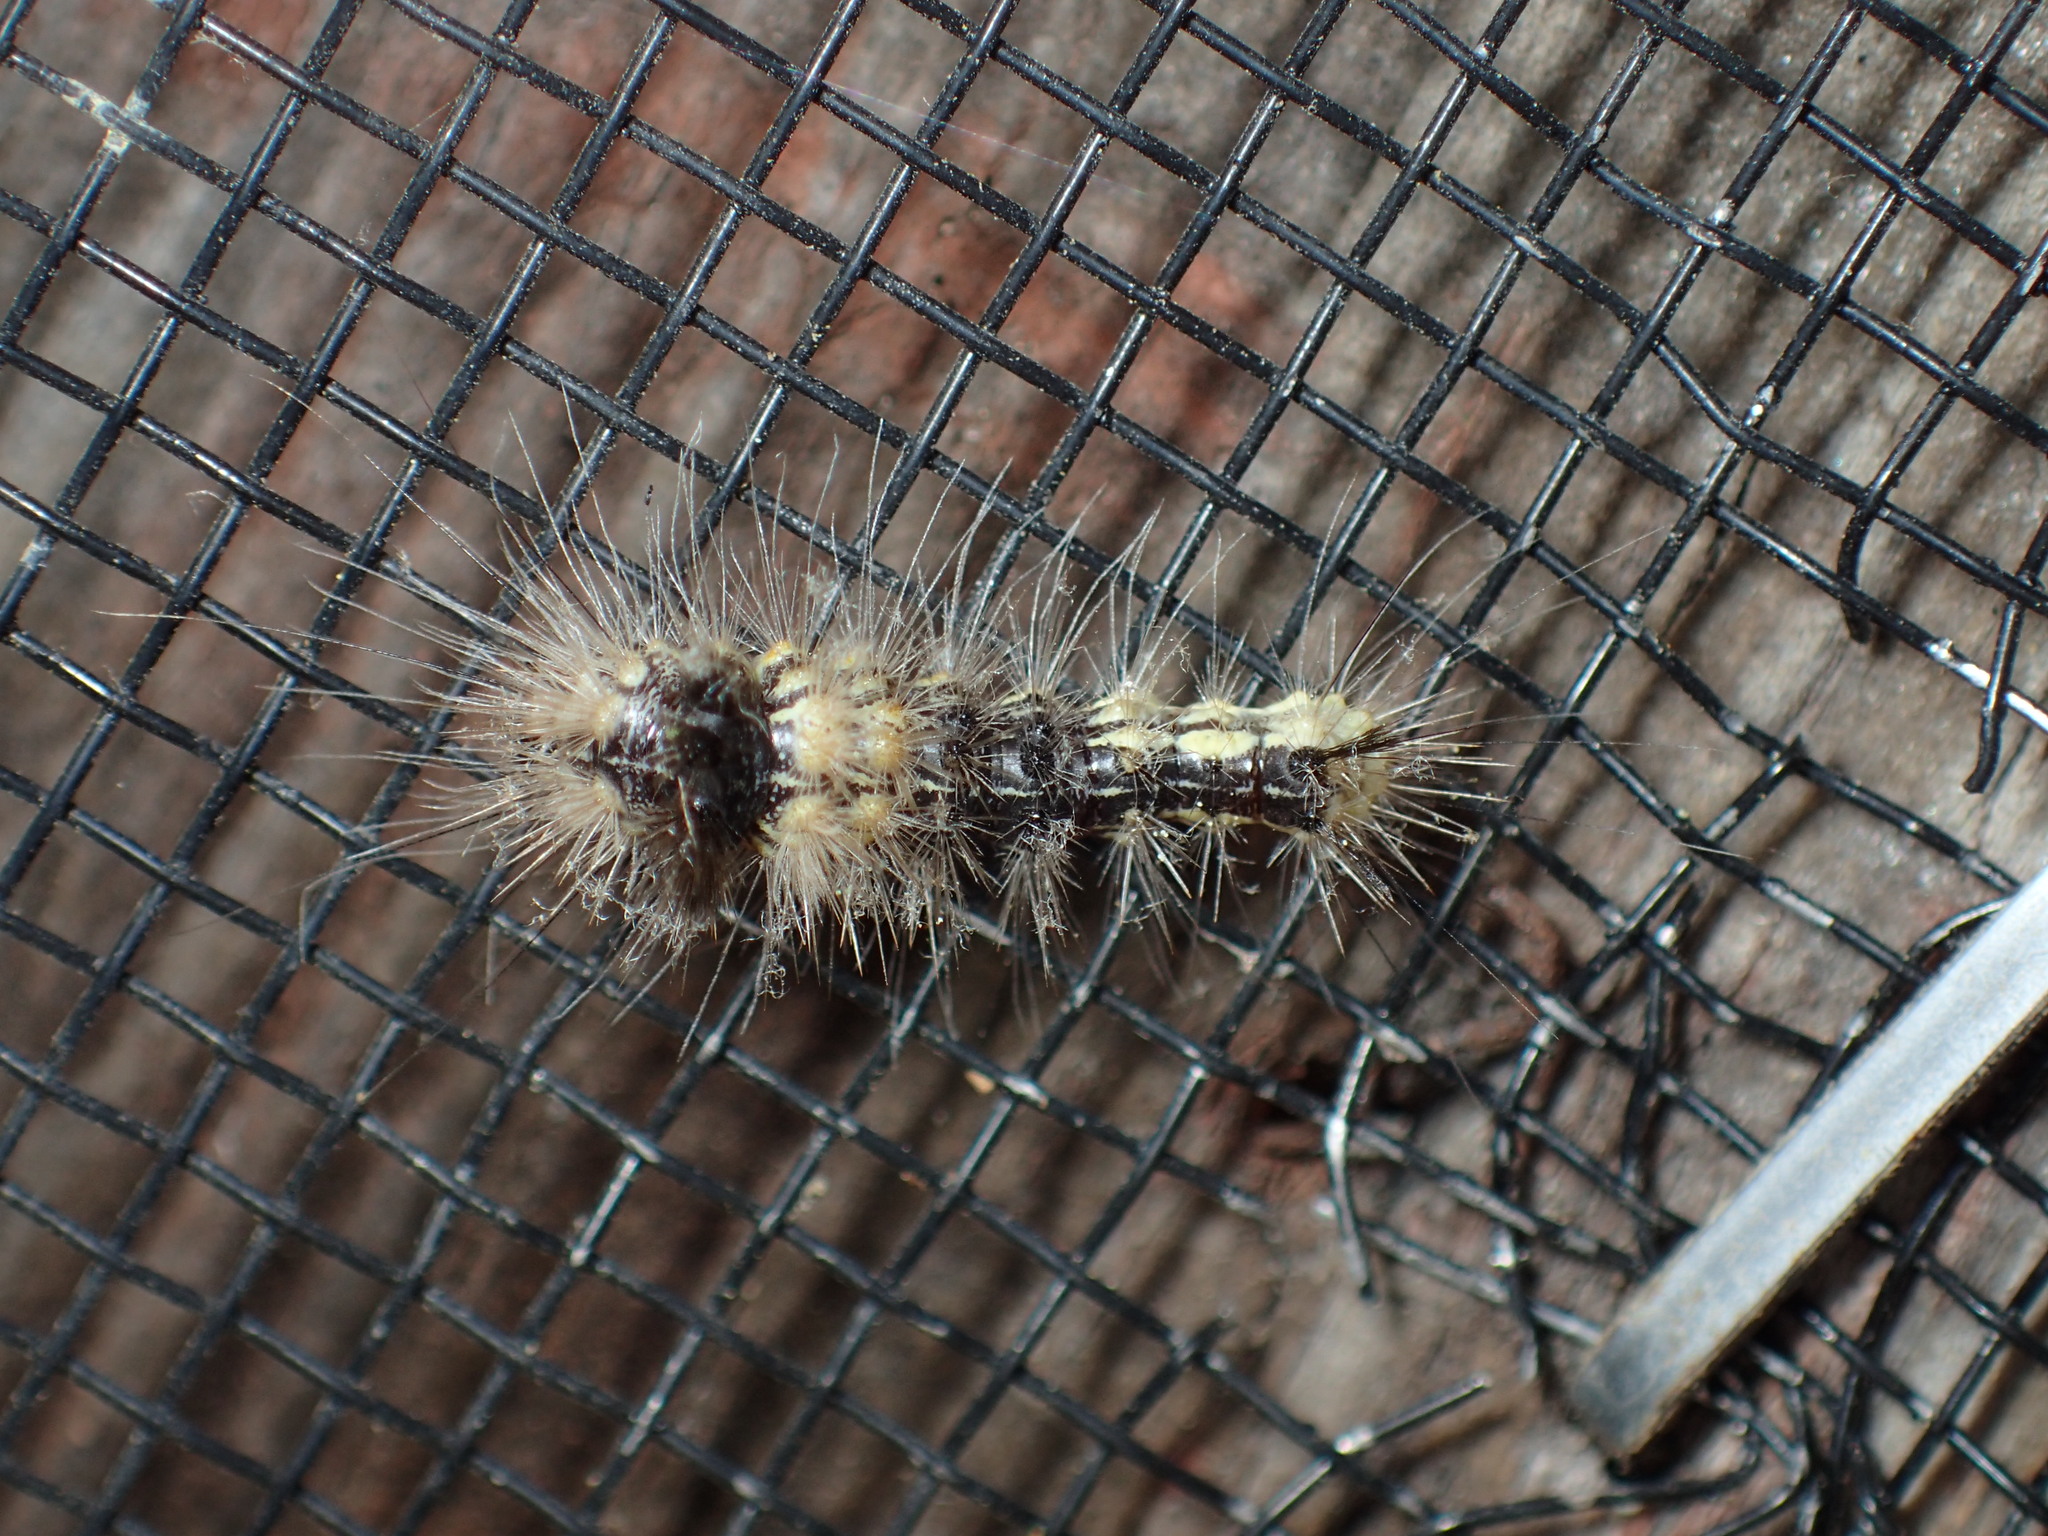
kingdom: Animalia
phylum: Arthropoda
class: Insecta
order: Lepidoptera
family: Noctuidae
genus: Acronicta
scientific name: Acronicta impleta
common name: Powdered dagger
